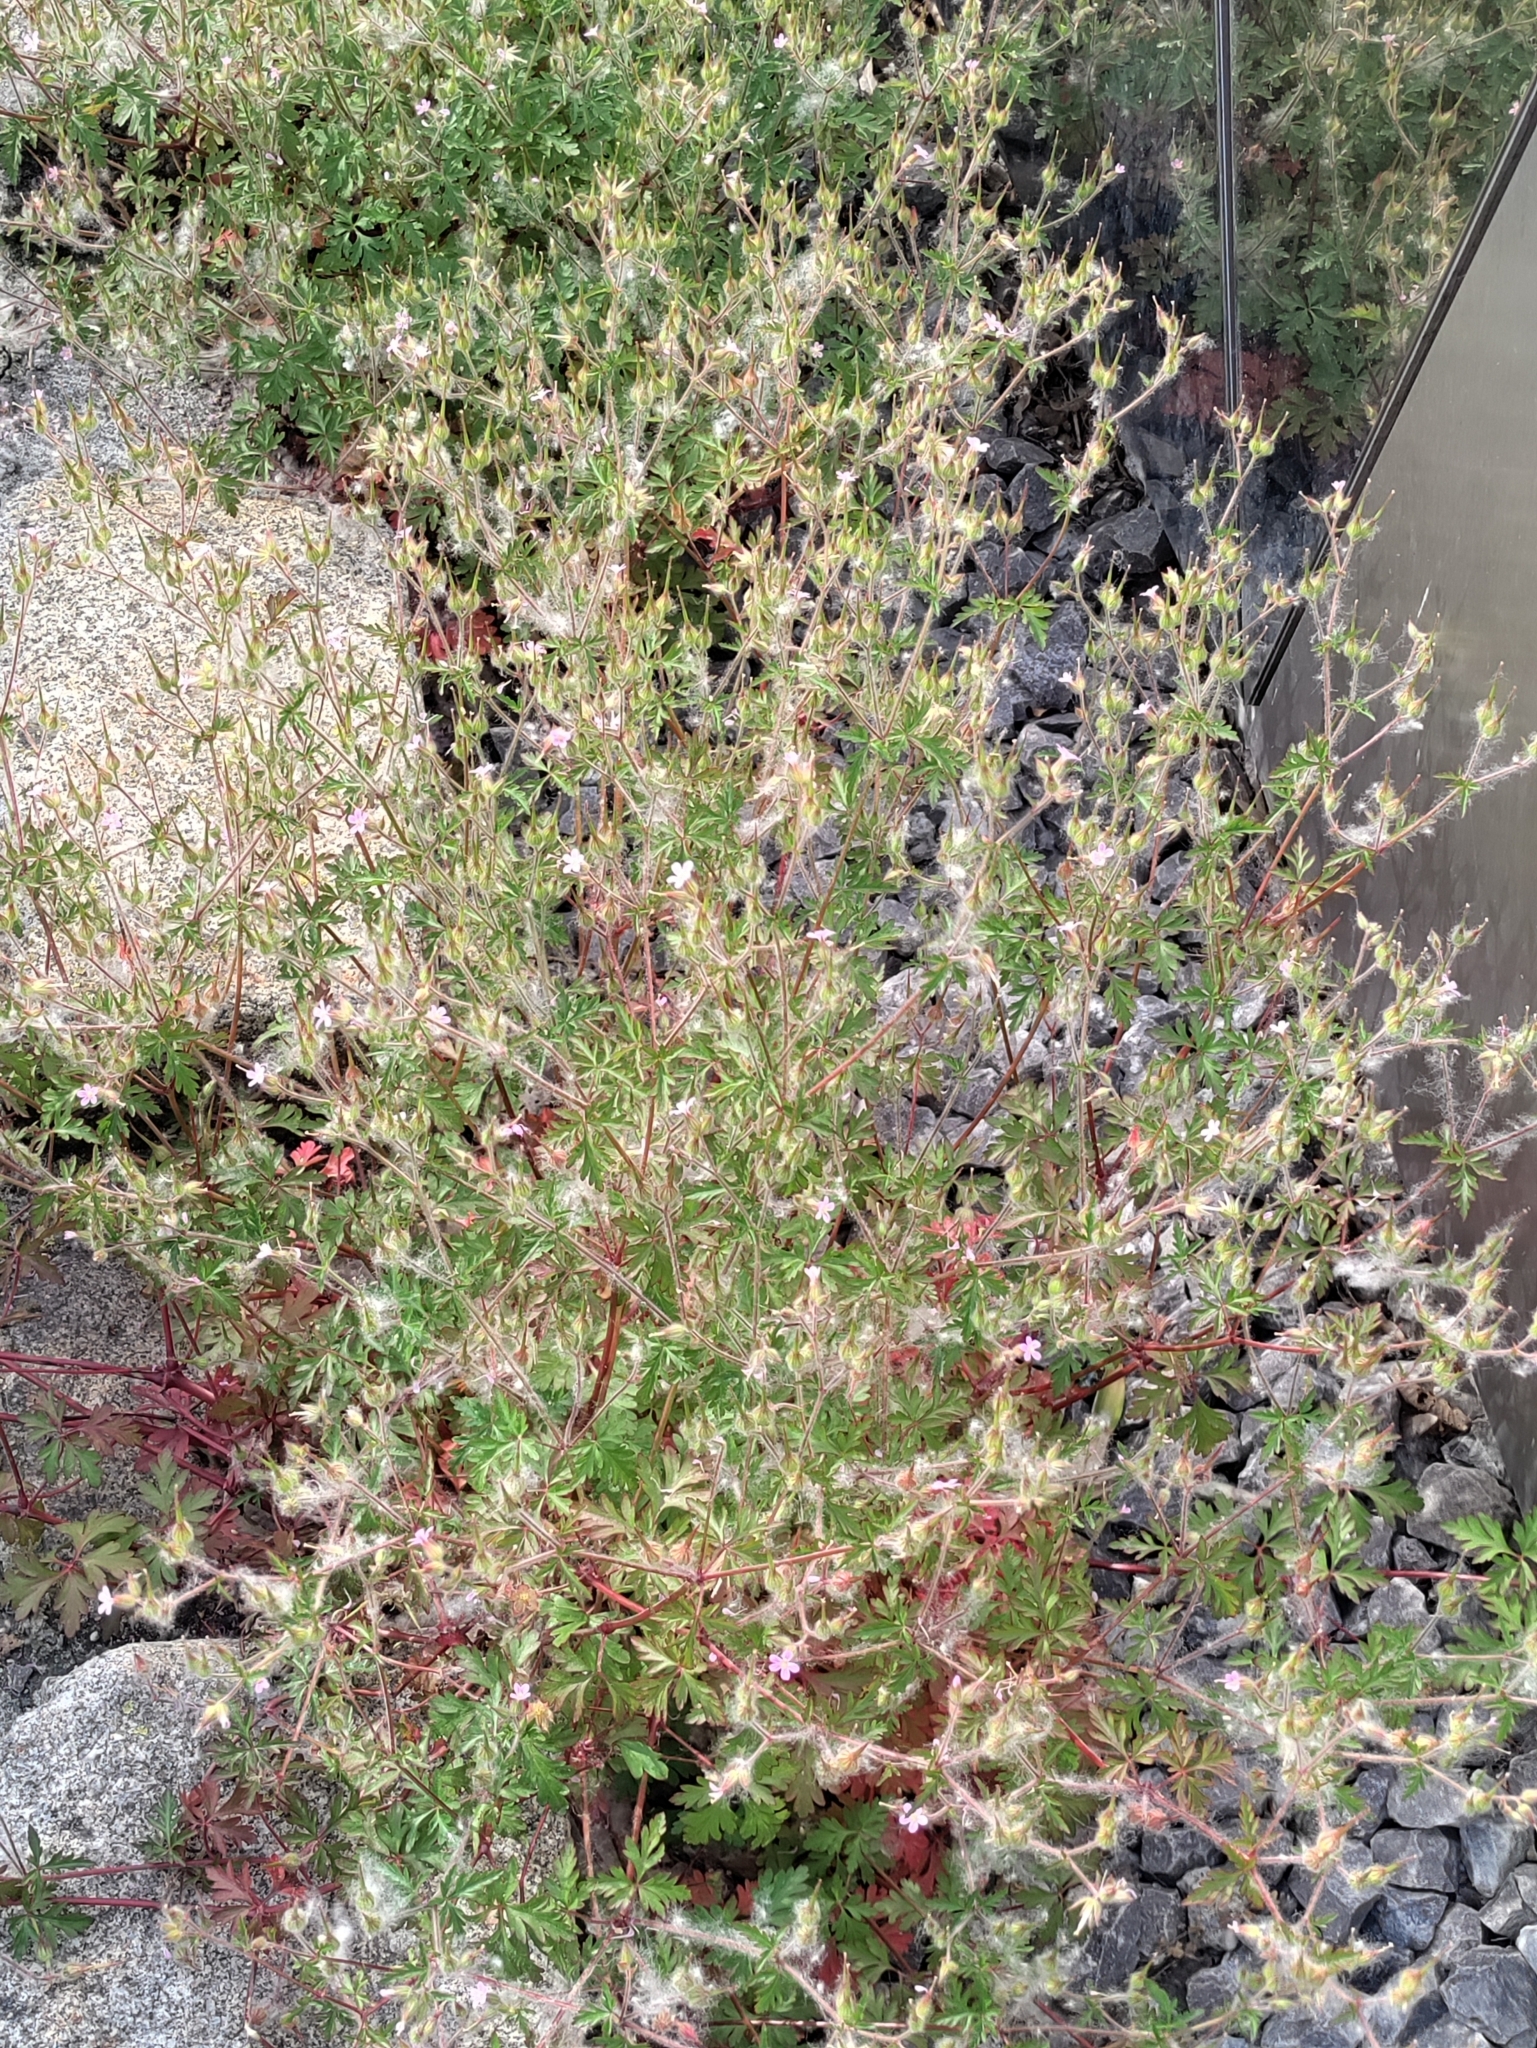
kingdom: Plantae
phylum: Tracheophyta
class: Magnoliopsida
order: Geraniales
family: Geraniaceae
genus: Geranium
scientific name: Geranium purpureum
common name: Little-robin
